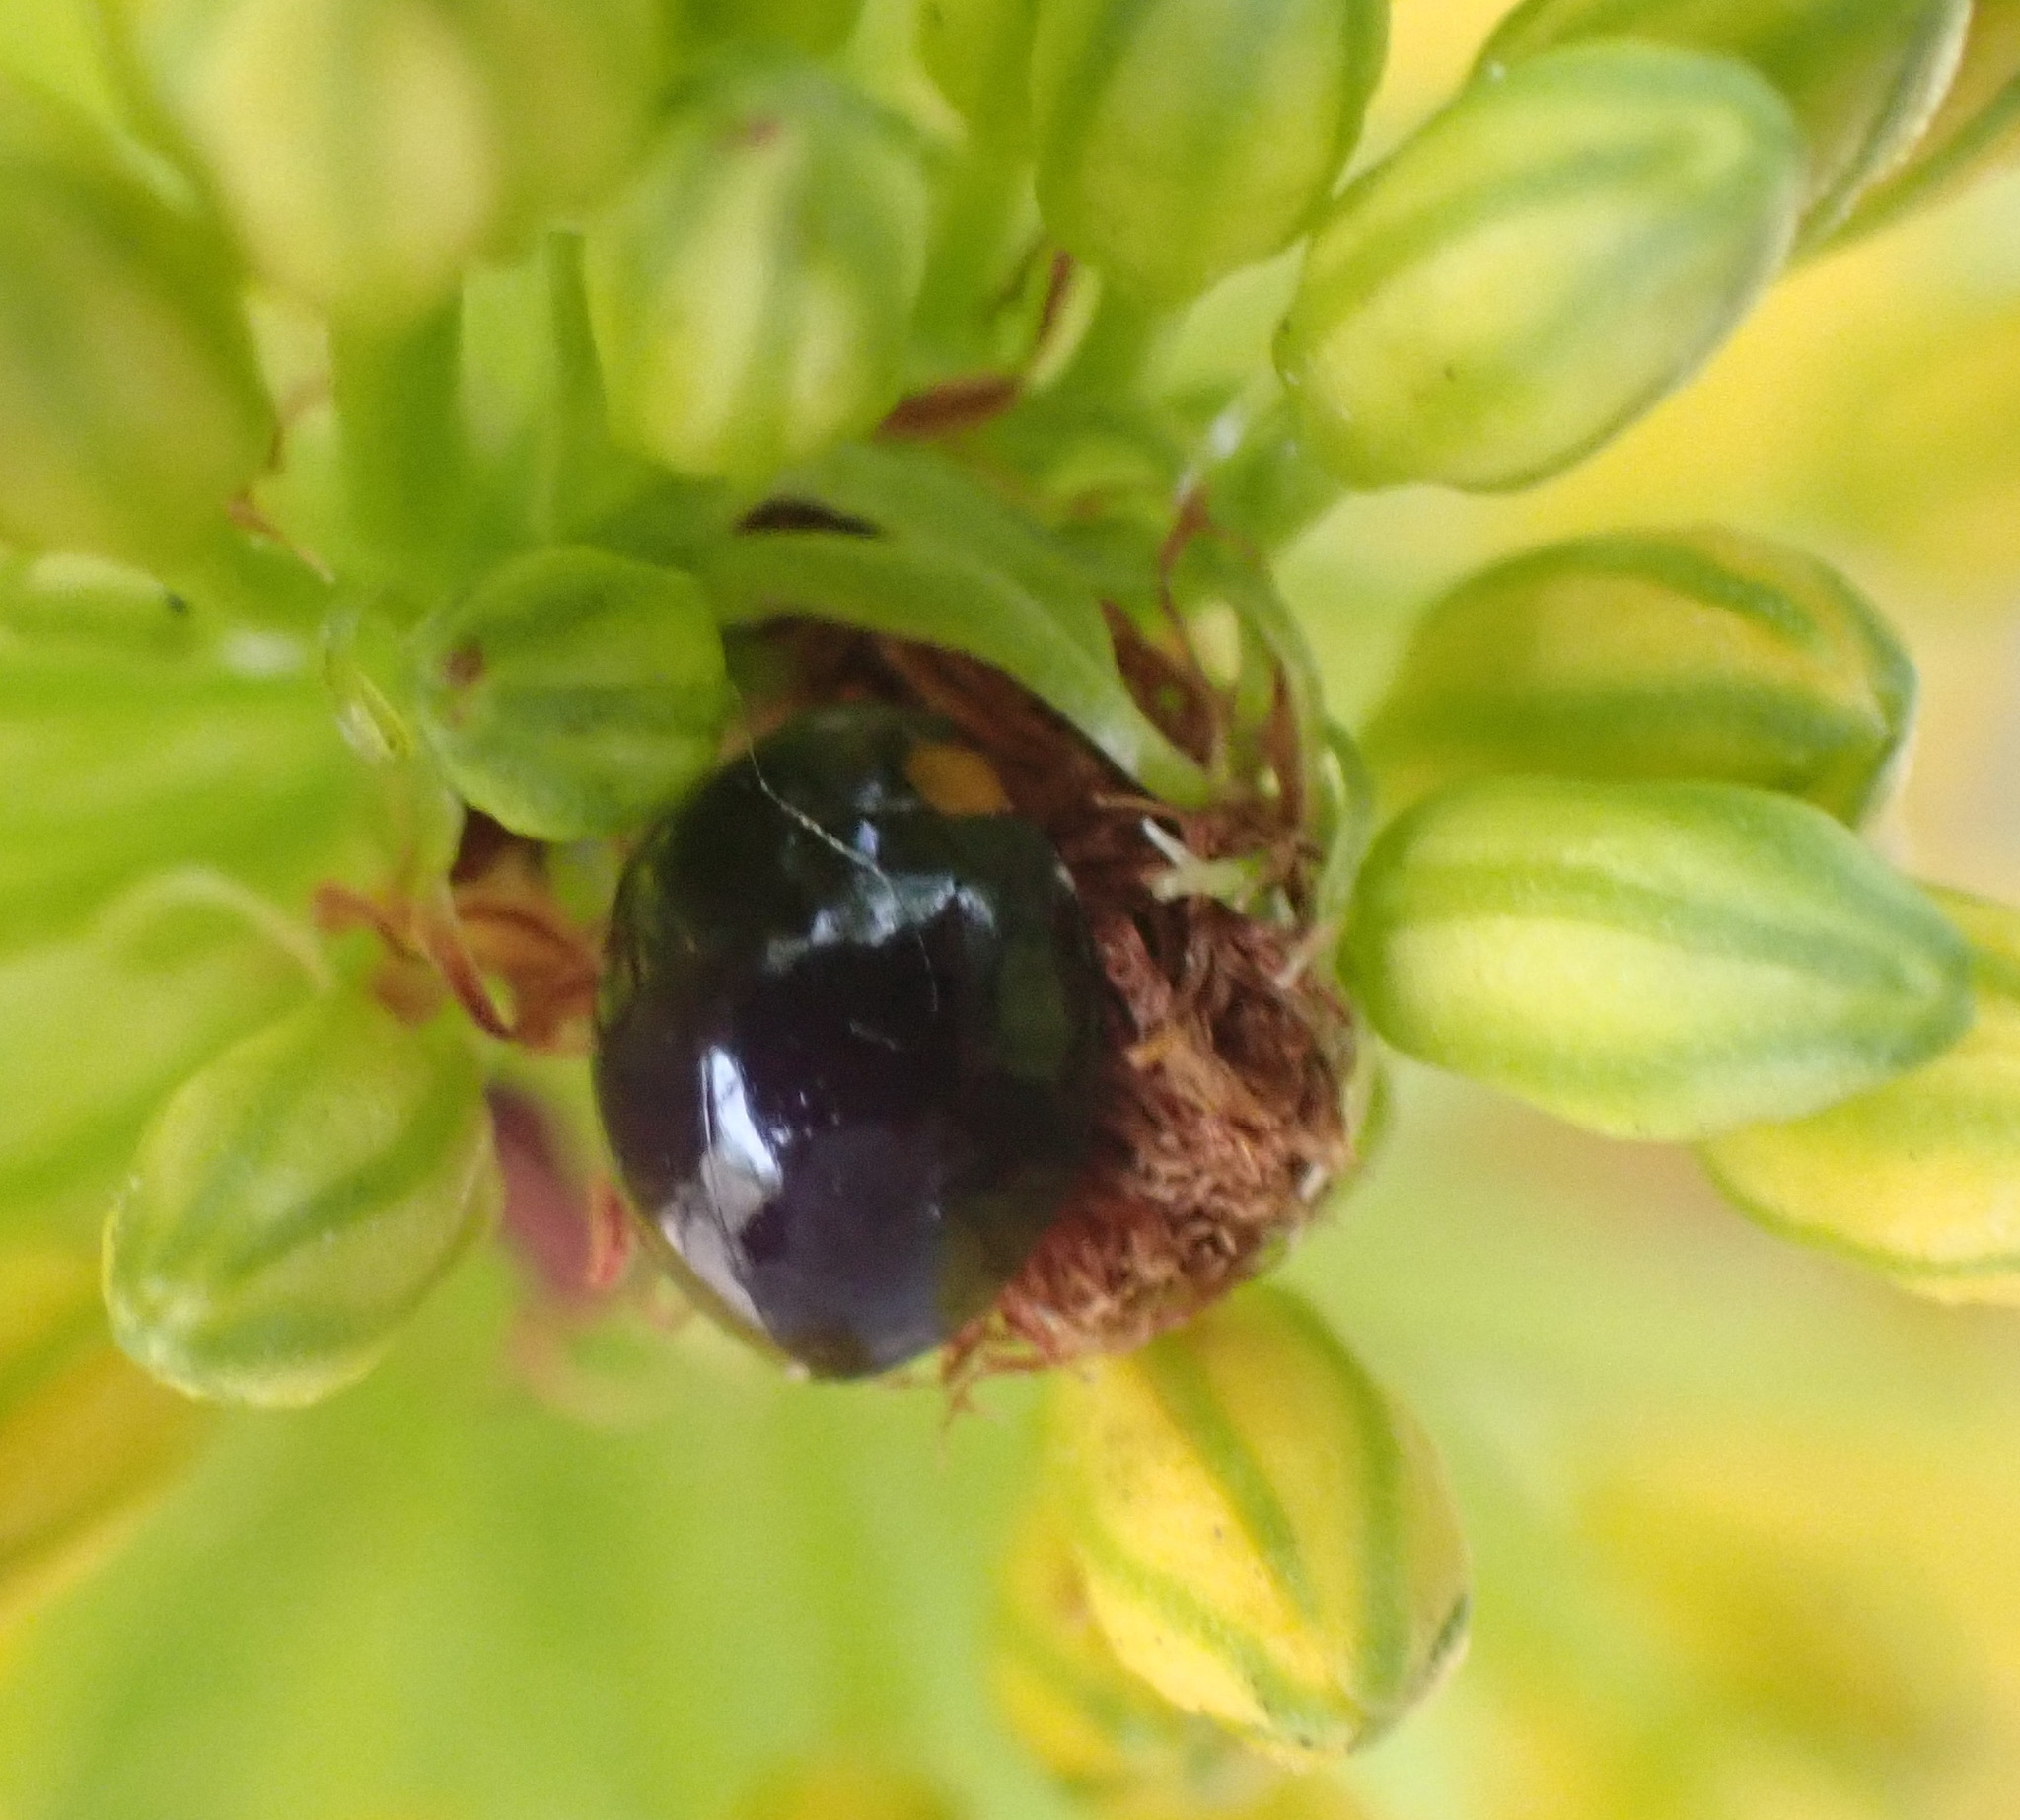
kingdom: Animalia
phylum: Arthropoda
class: Insecta
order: Coleoptera
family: Coccinellidae
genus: Exochomus
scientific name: Exochomus flavipes
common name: Ladybird beetle
